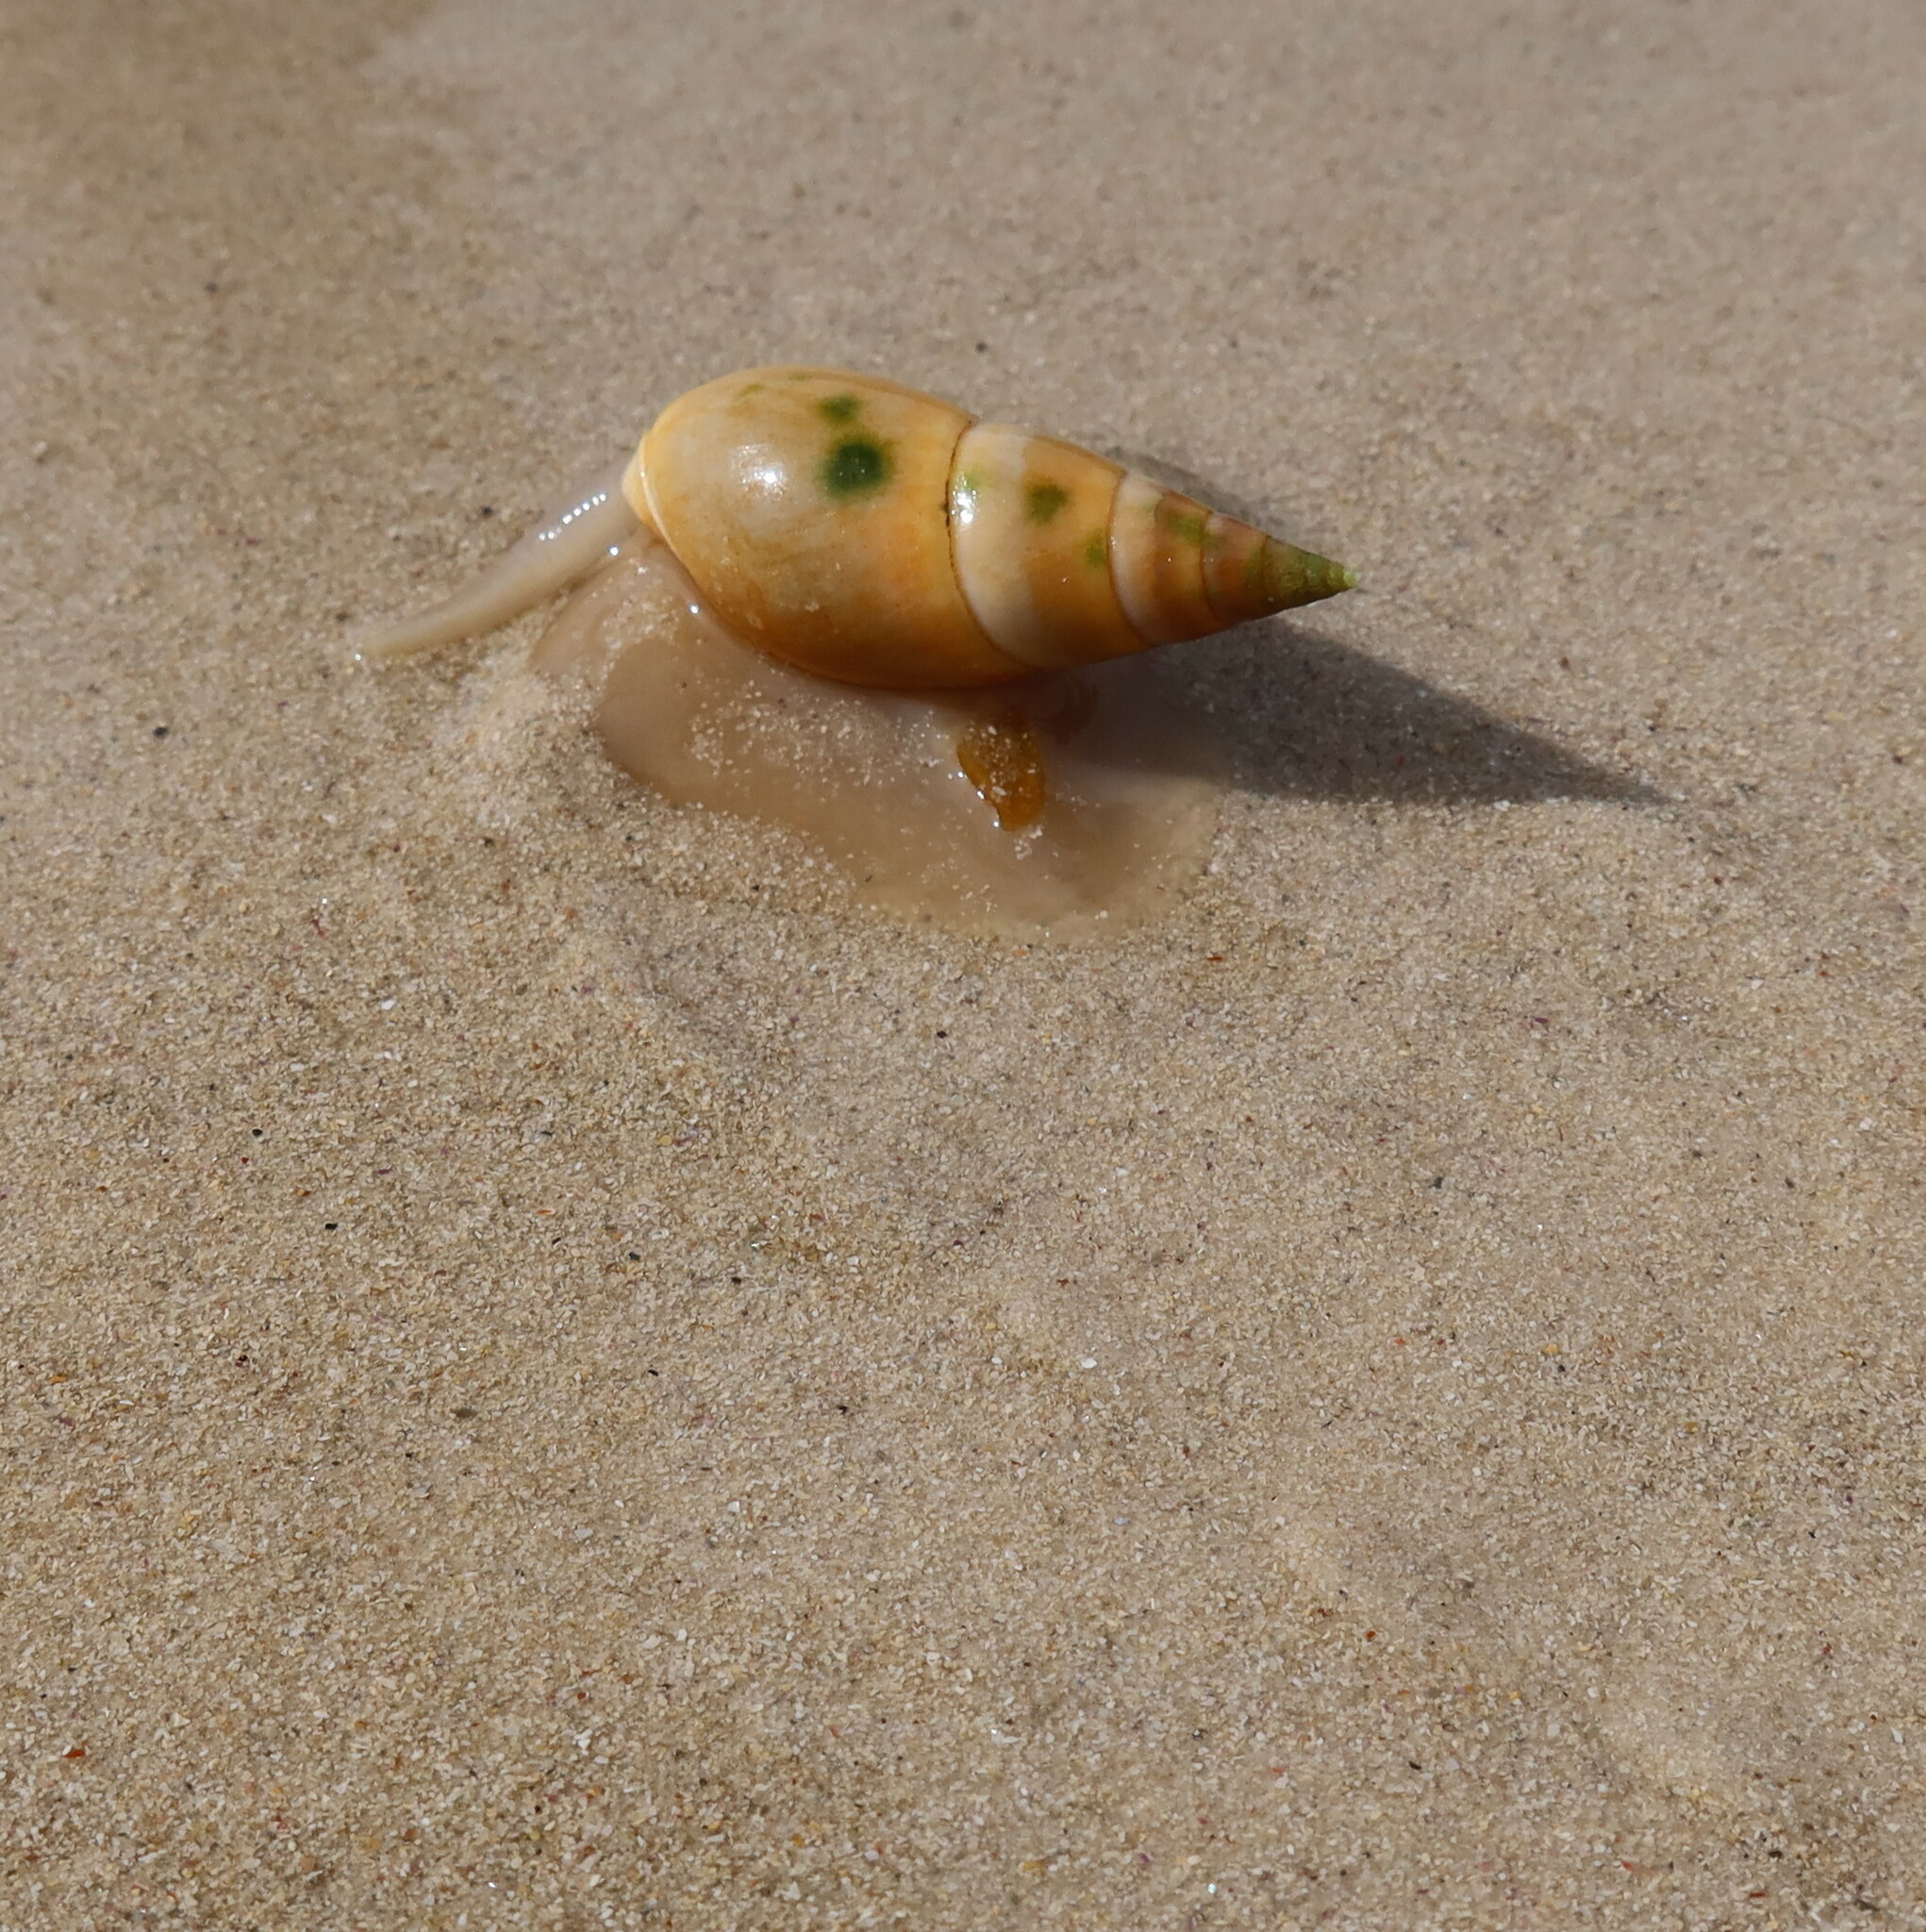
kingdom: Animalia
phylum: Mollusca
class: Gastropoda
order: Neogastropoda
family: Nassariidae
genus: Bullia
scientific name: Bullia rhodostoma
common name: Smooth plough shell
